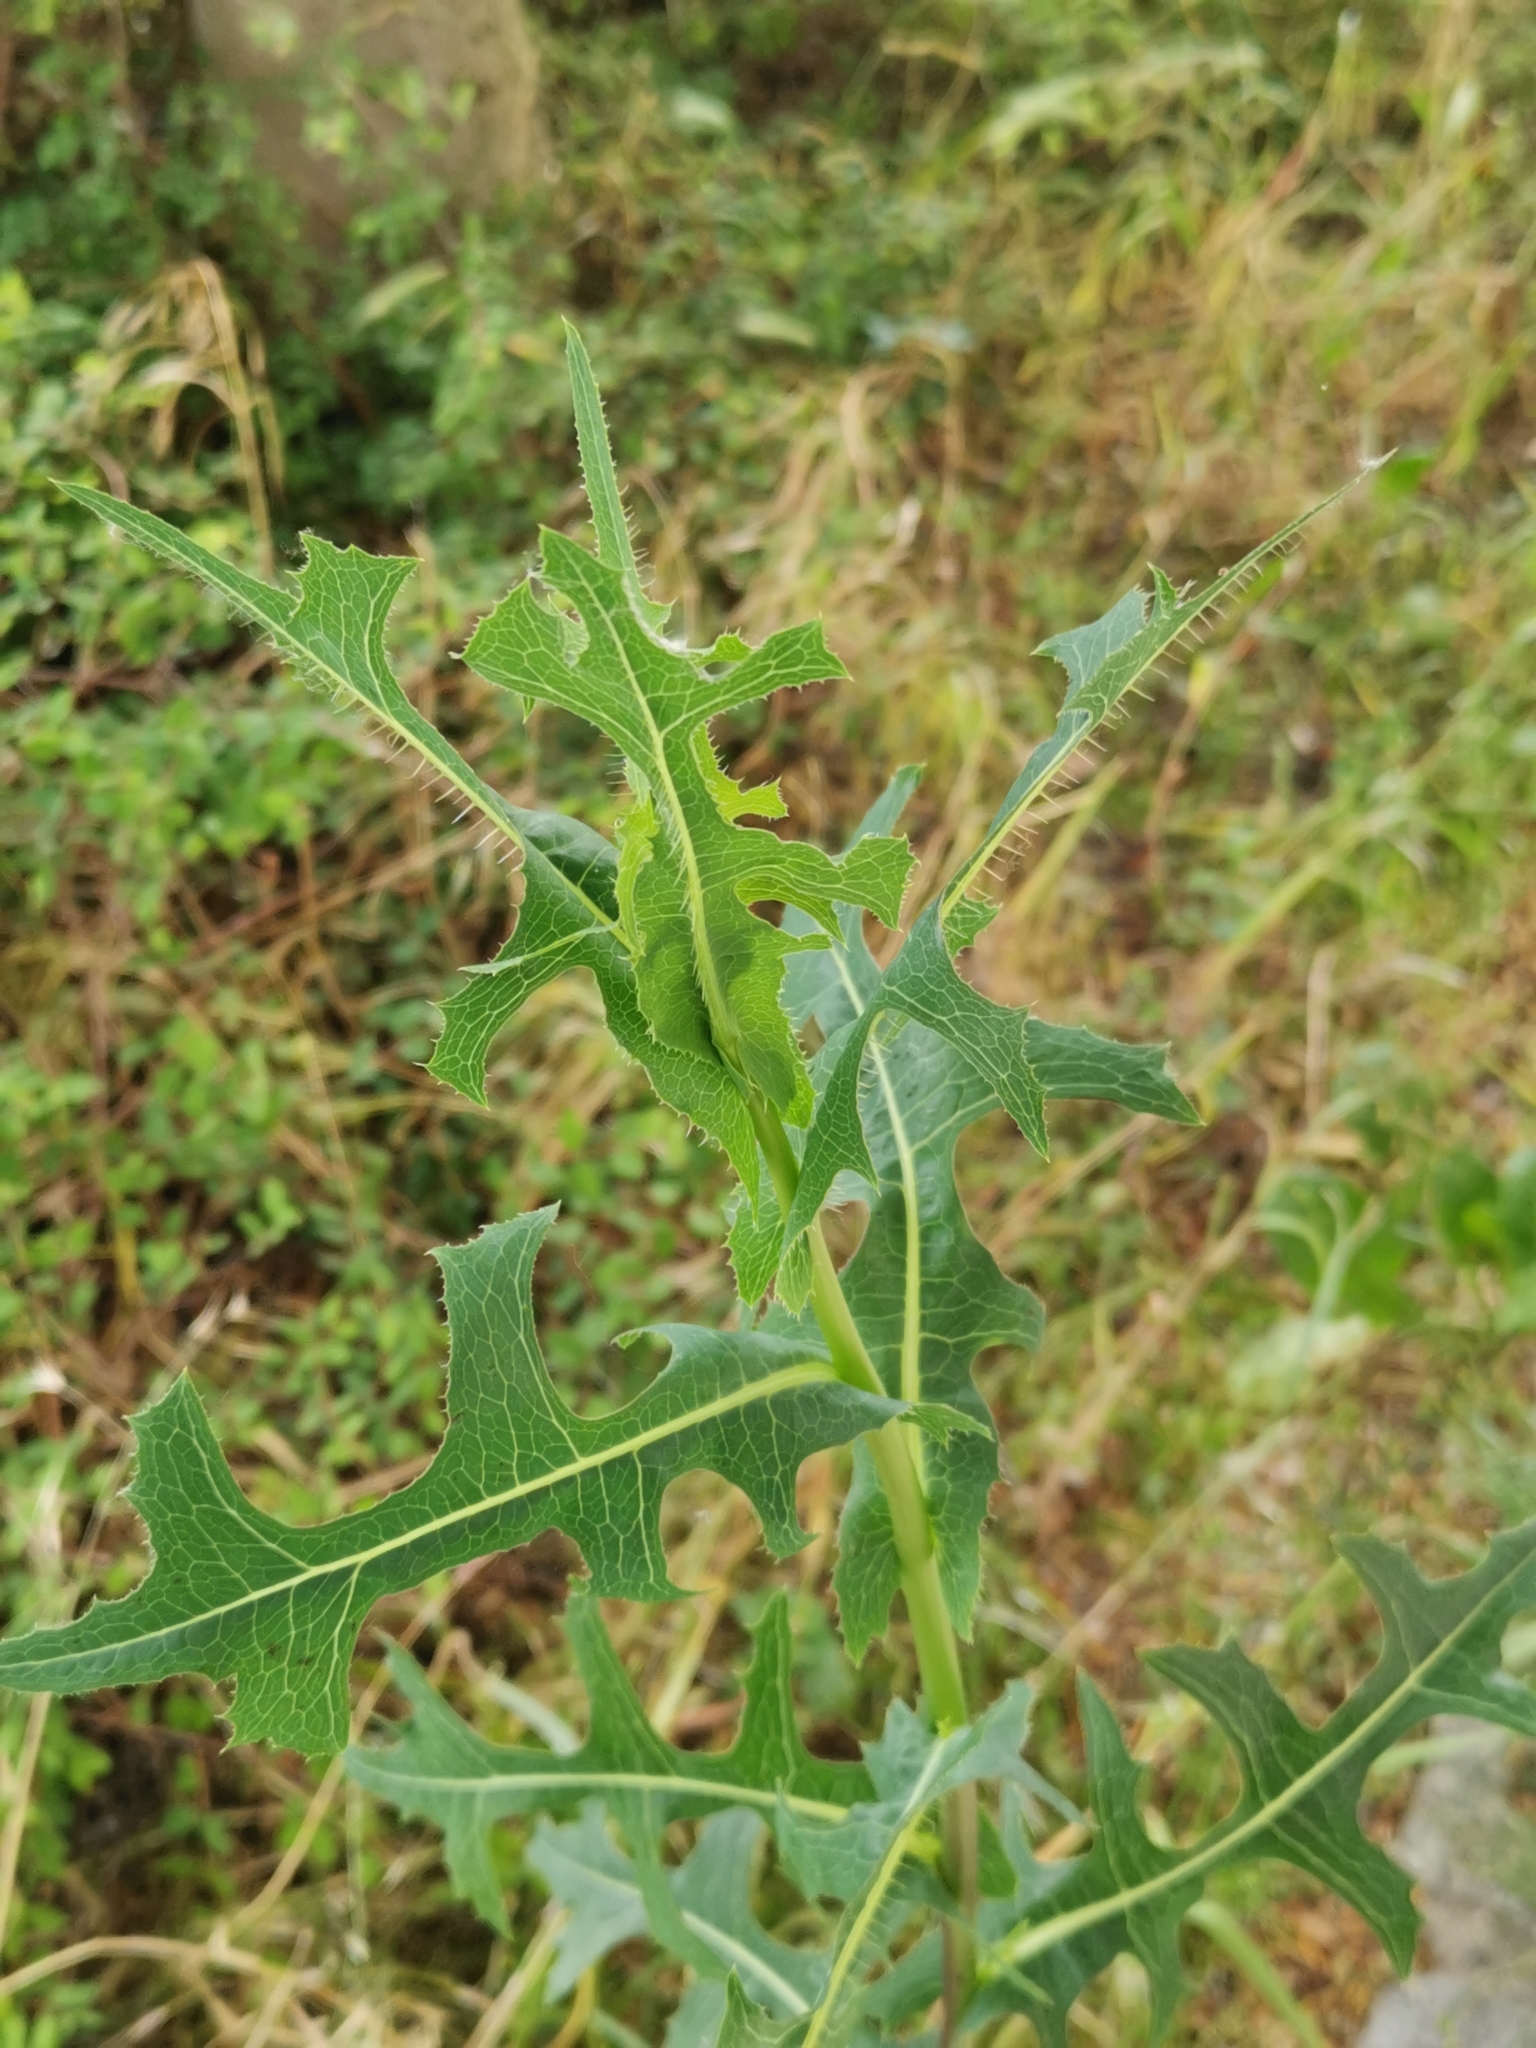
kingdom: Plantae
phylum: Tracheophyta
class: Magnoliopsida
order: Asterales
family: Asteraceae
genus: Lactuca
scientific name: Lactuca serriola
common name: Prickly lettuce
